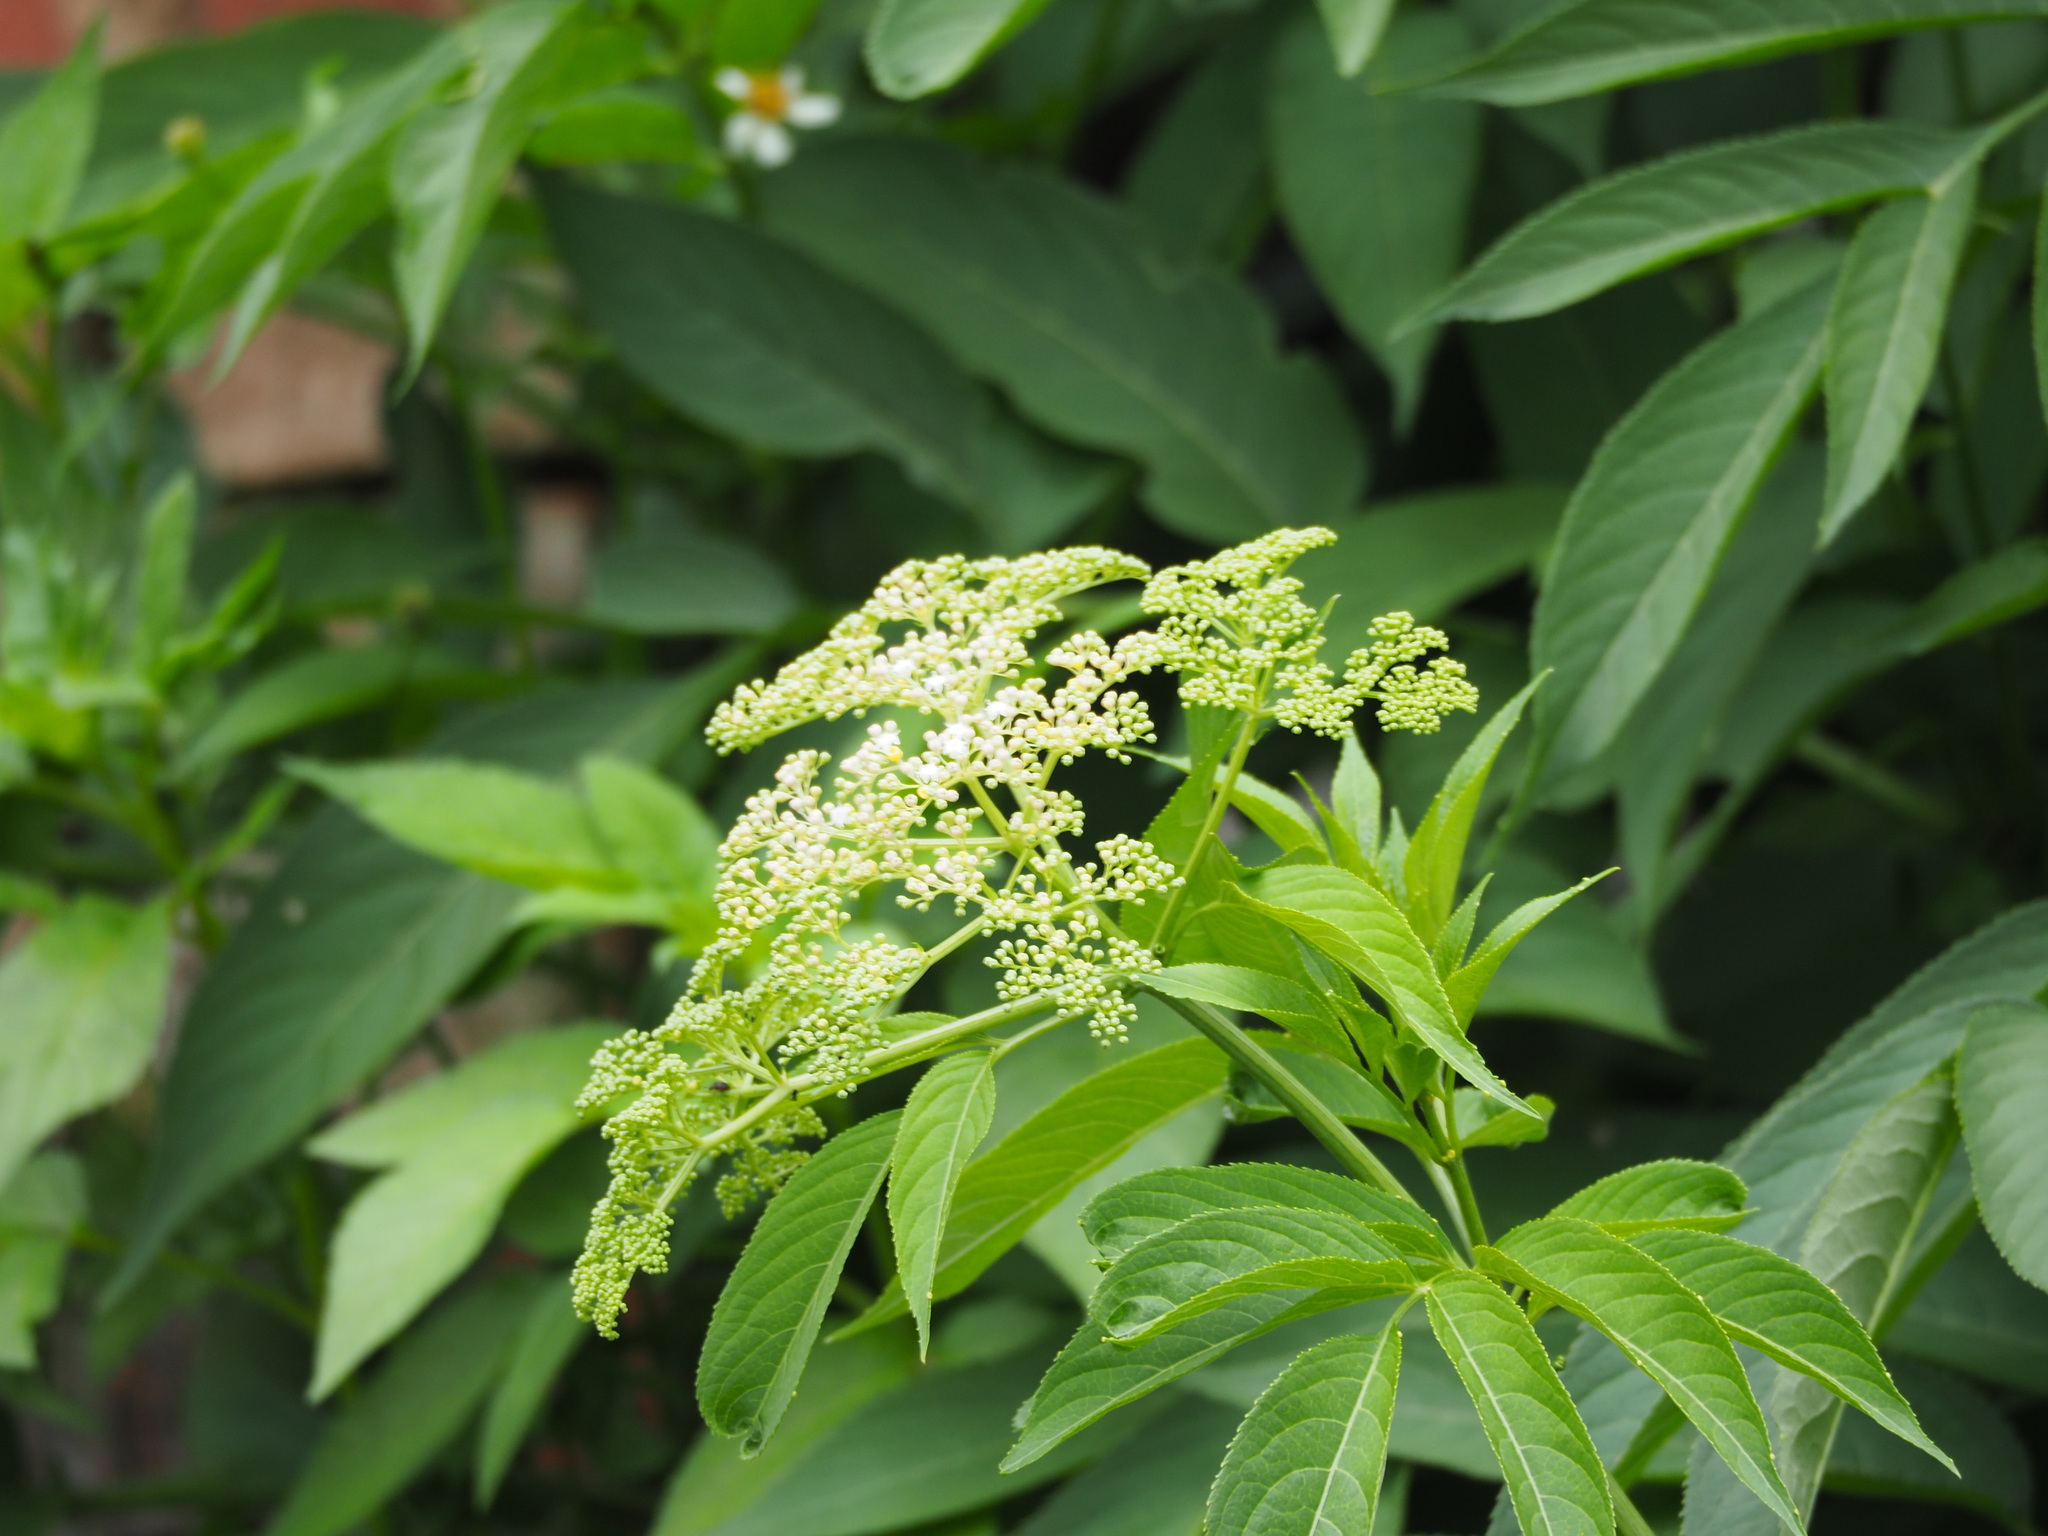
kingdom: Plantae
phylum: Tracheophyta
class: Magnoliopsida
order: Dipsacales
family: Viburnaceae
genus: Sambucus
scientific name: Sambucus javanica
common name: Chinese elder
